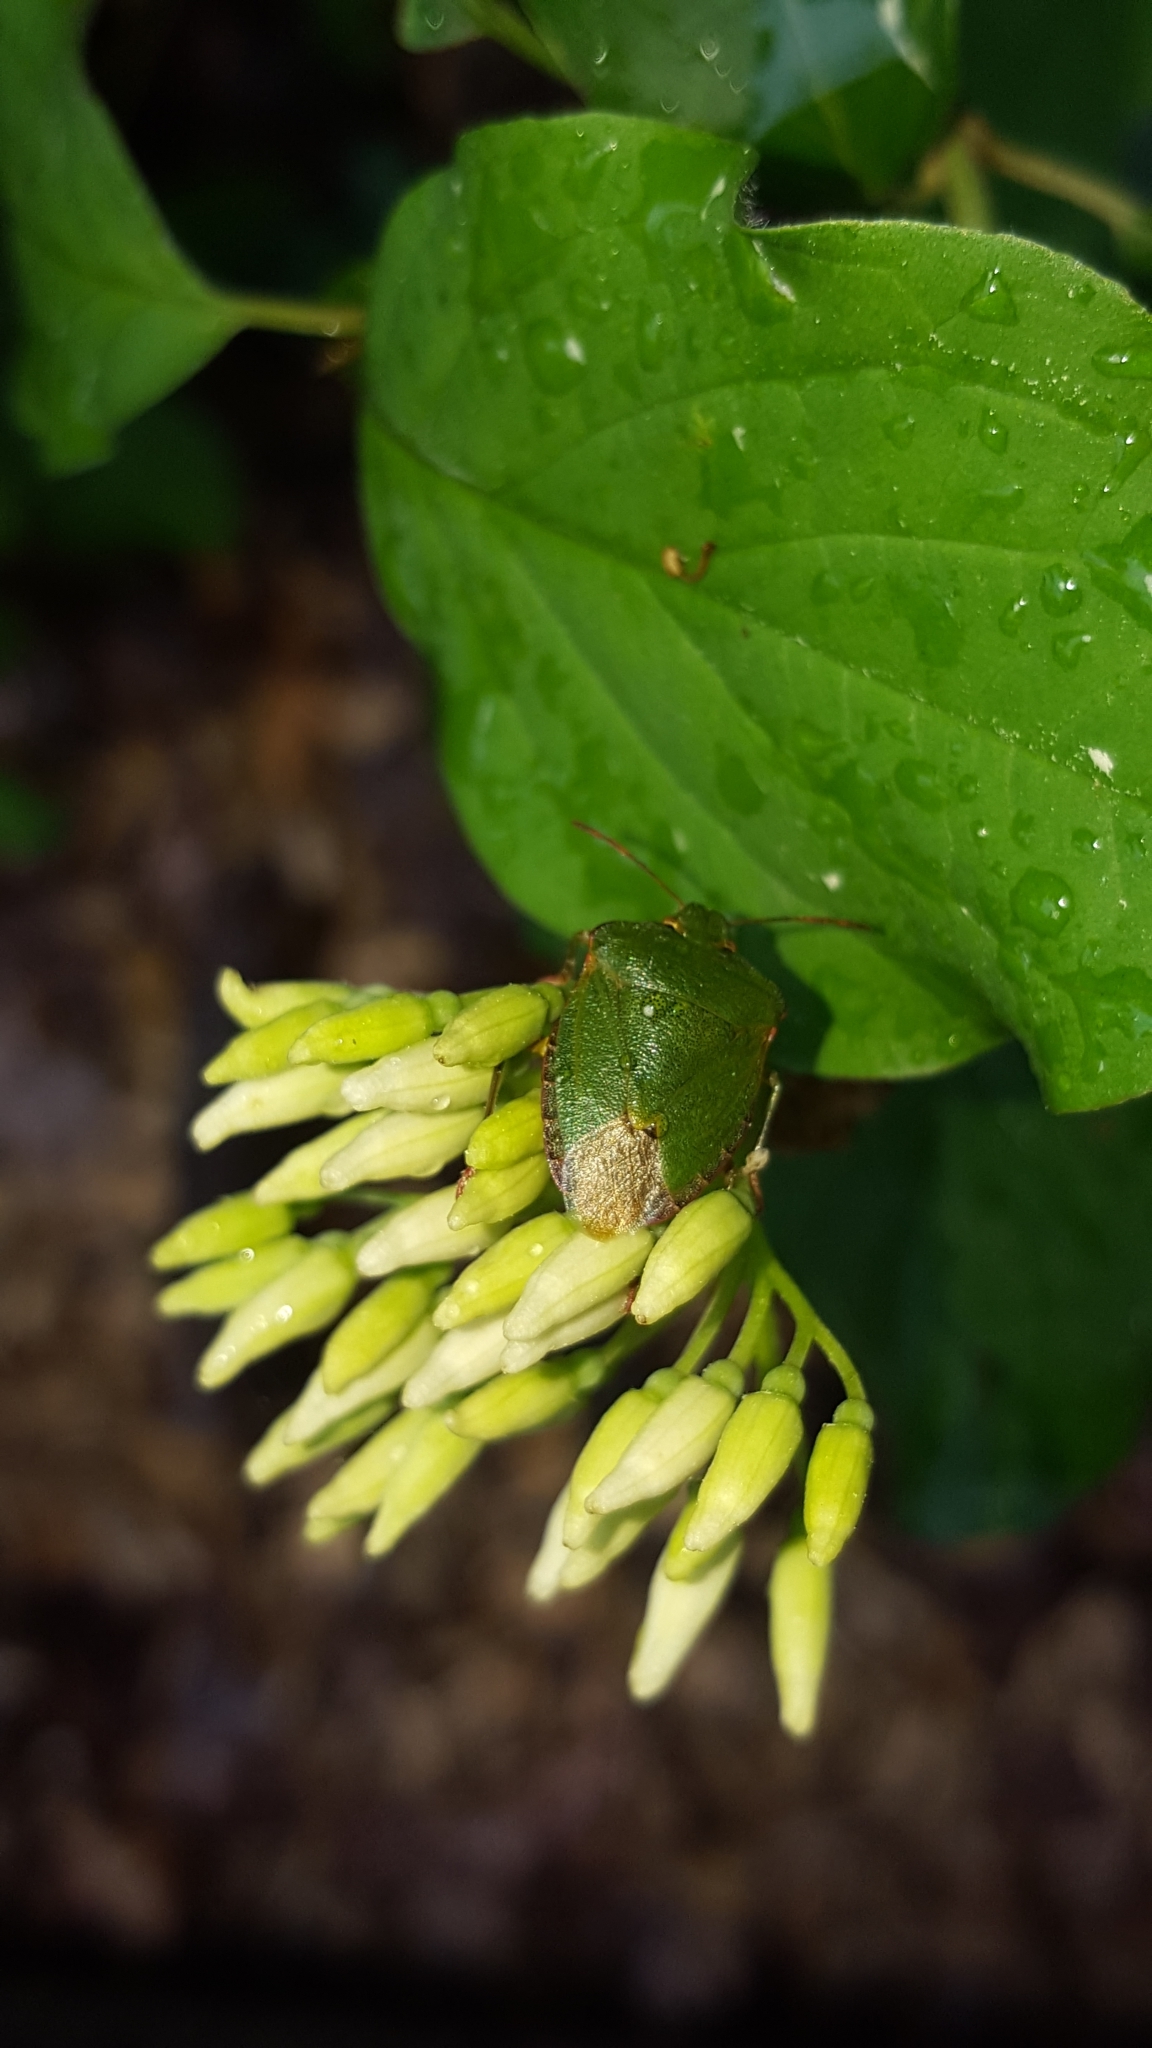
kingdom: Animalia
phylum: Arthropoda
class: Insecta
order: Hemiptera
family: Pentatomidae
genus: Palomena
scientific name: Palomena prasina
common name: Green shieldbug
